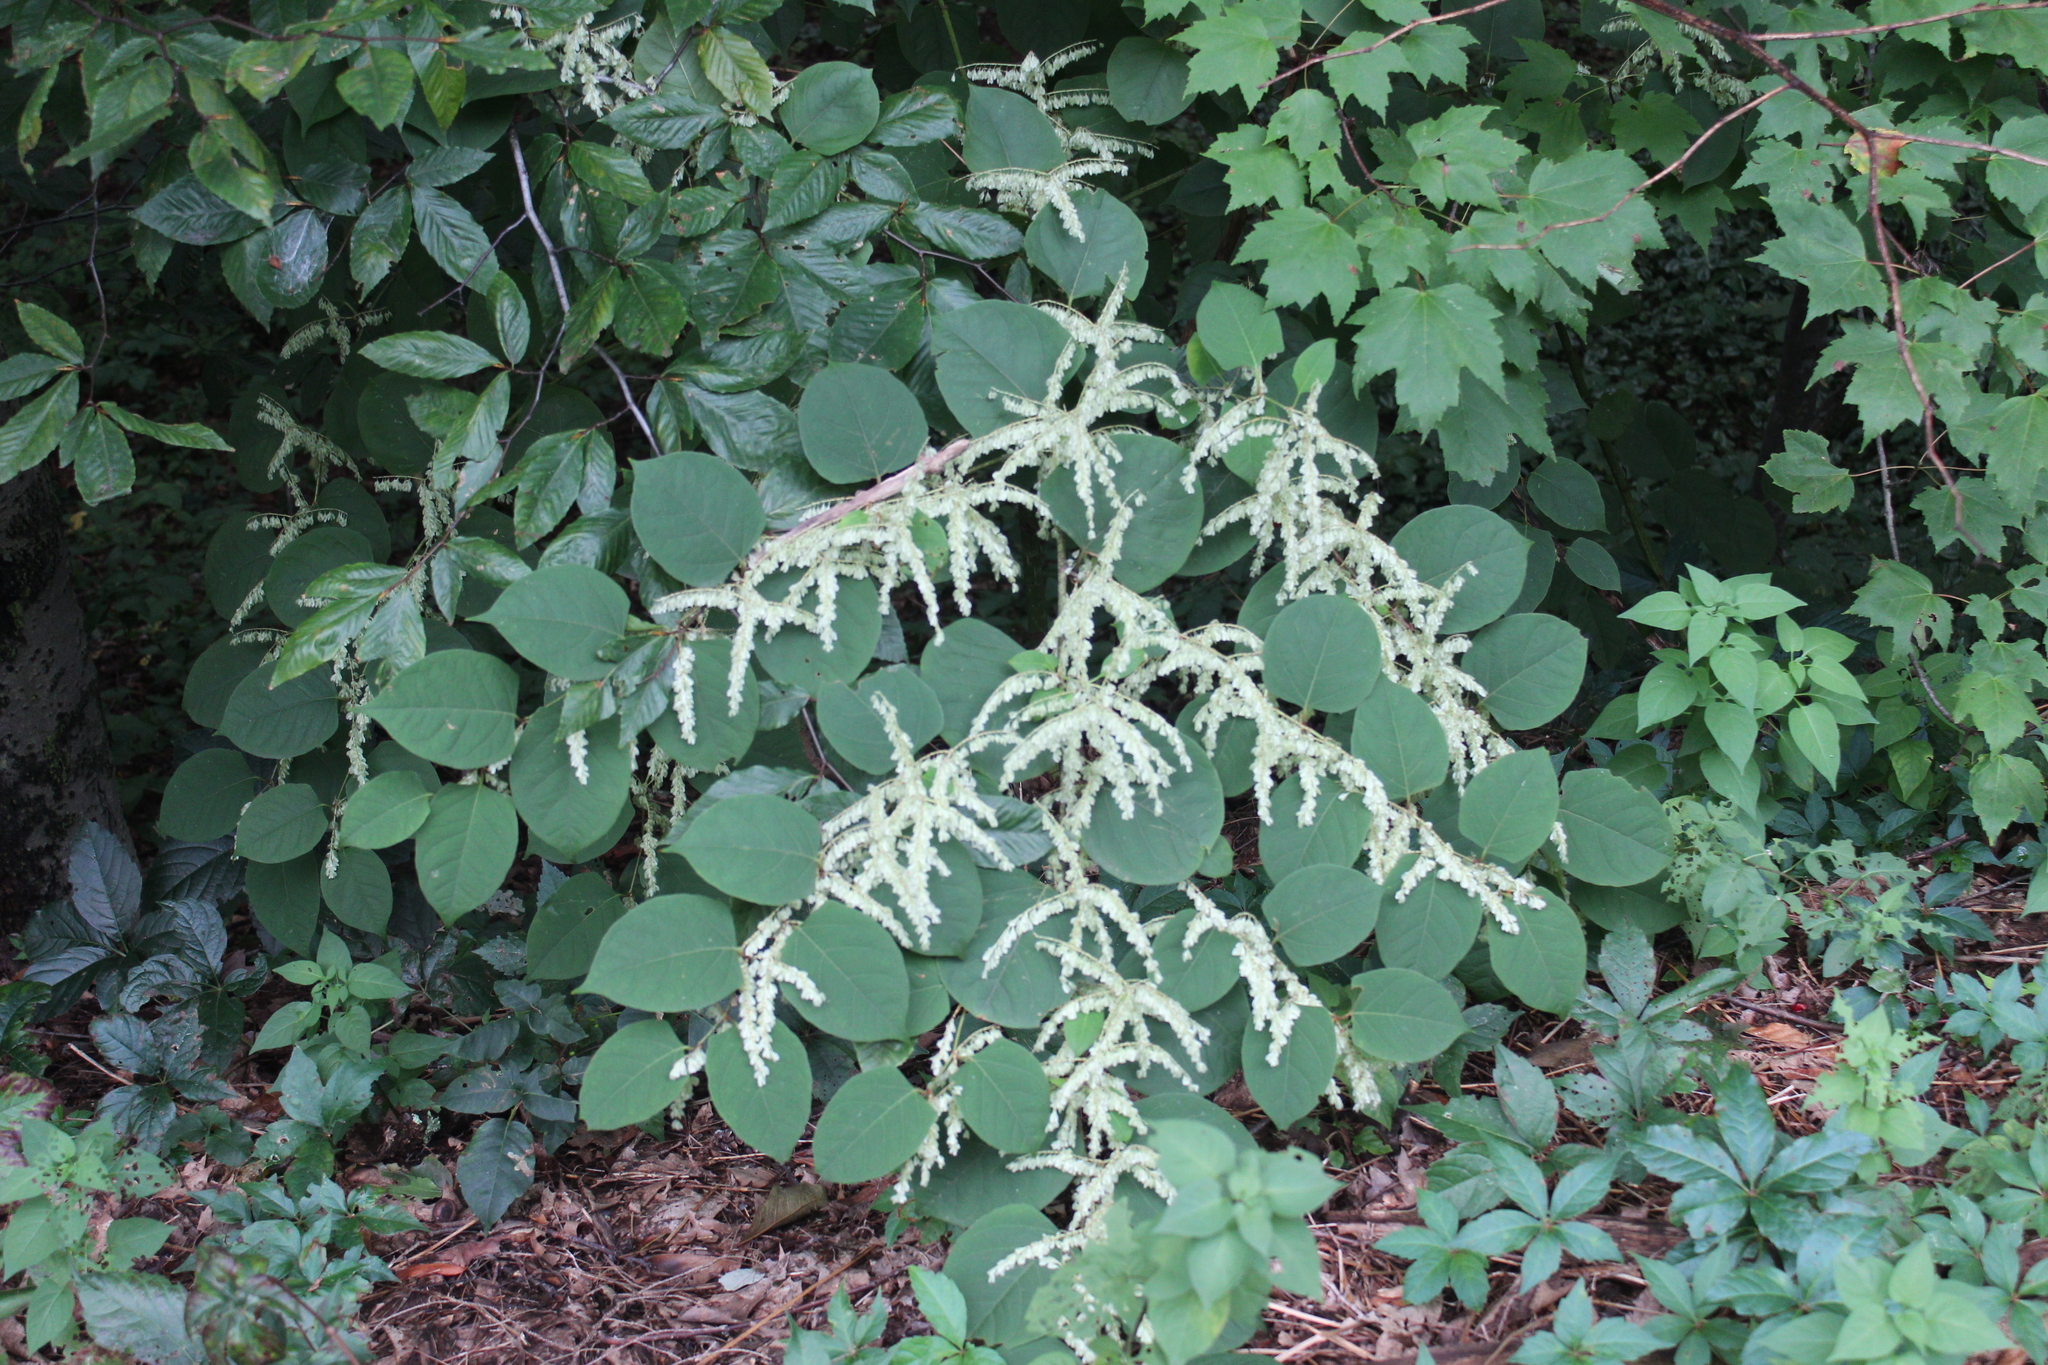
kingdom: Plantae
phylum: Tracheophyta
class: Magnoliopsida
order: Caryophyllales
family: Polygonaceae
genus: Reynoutria
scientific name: Reynoutria japonica
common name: Japanese knotweed
